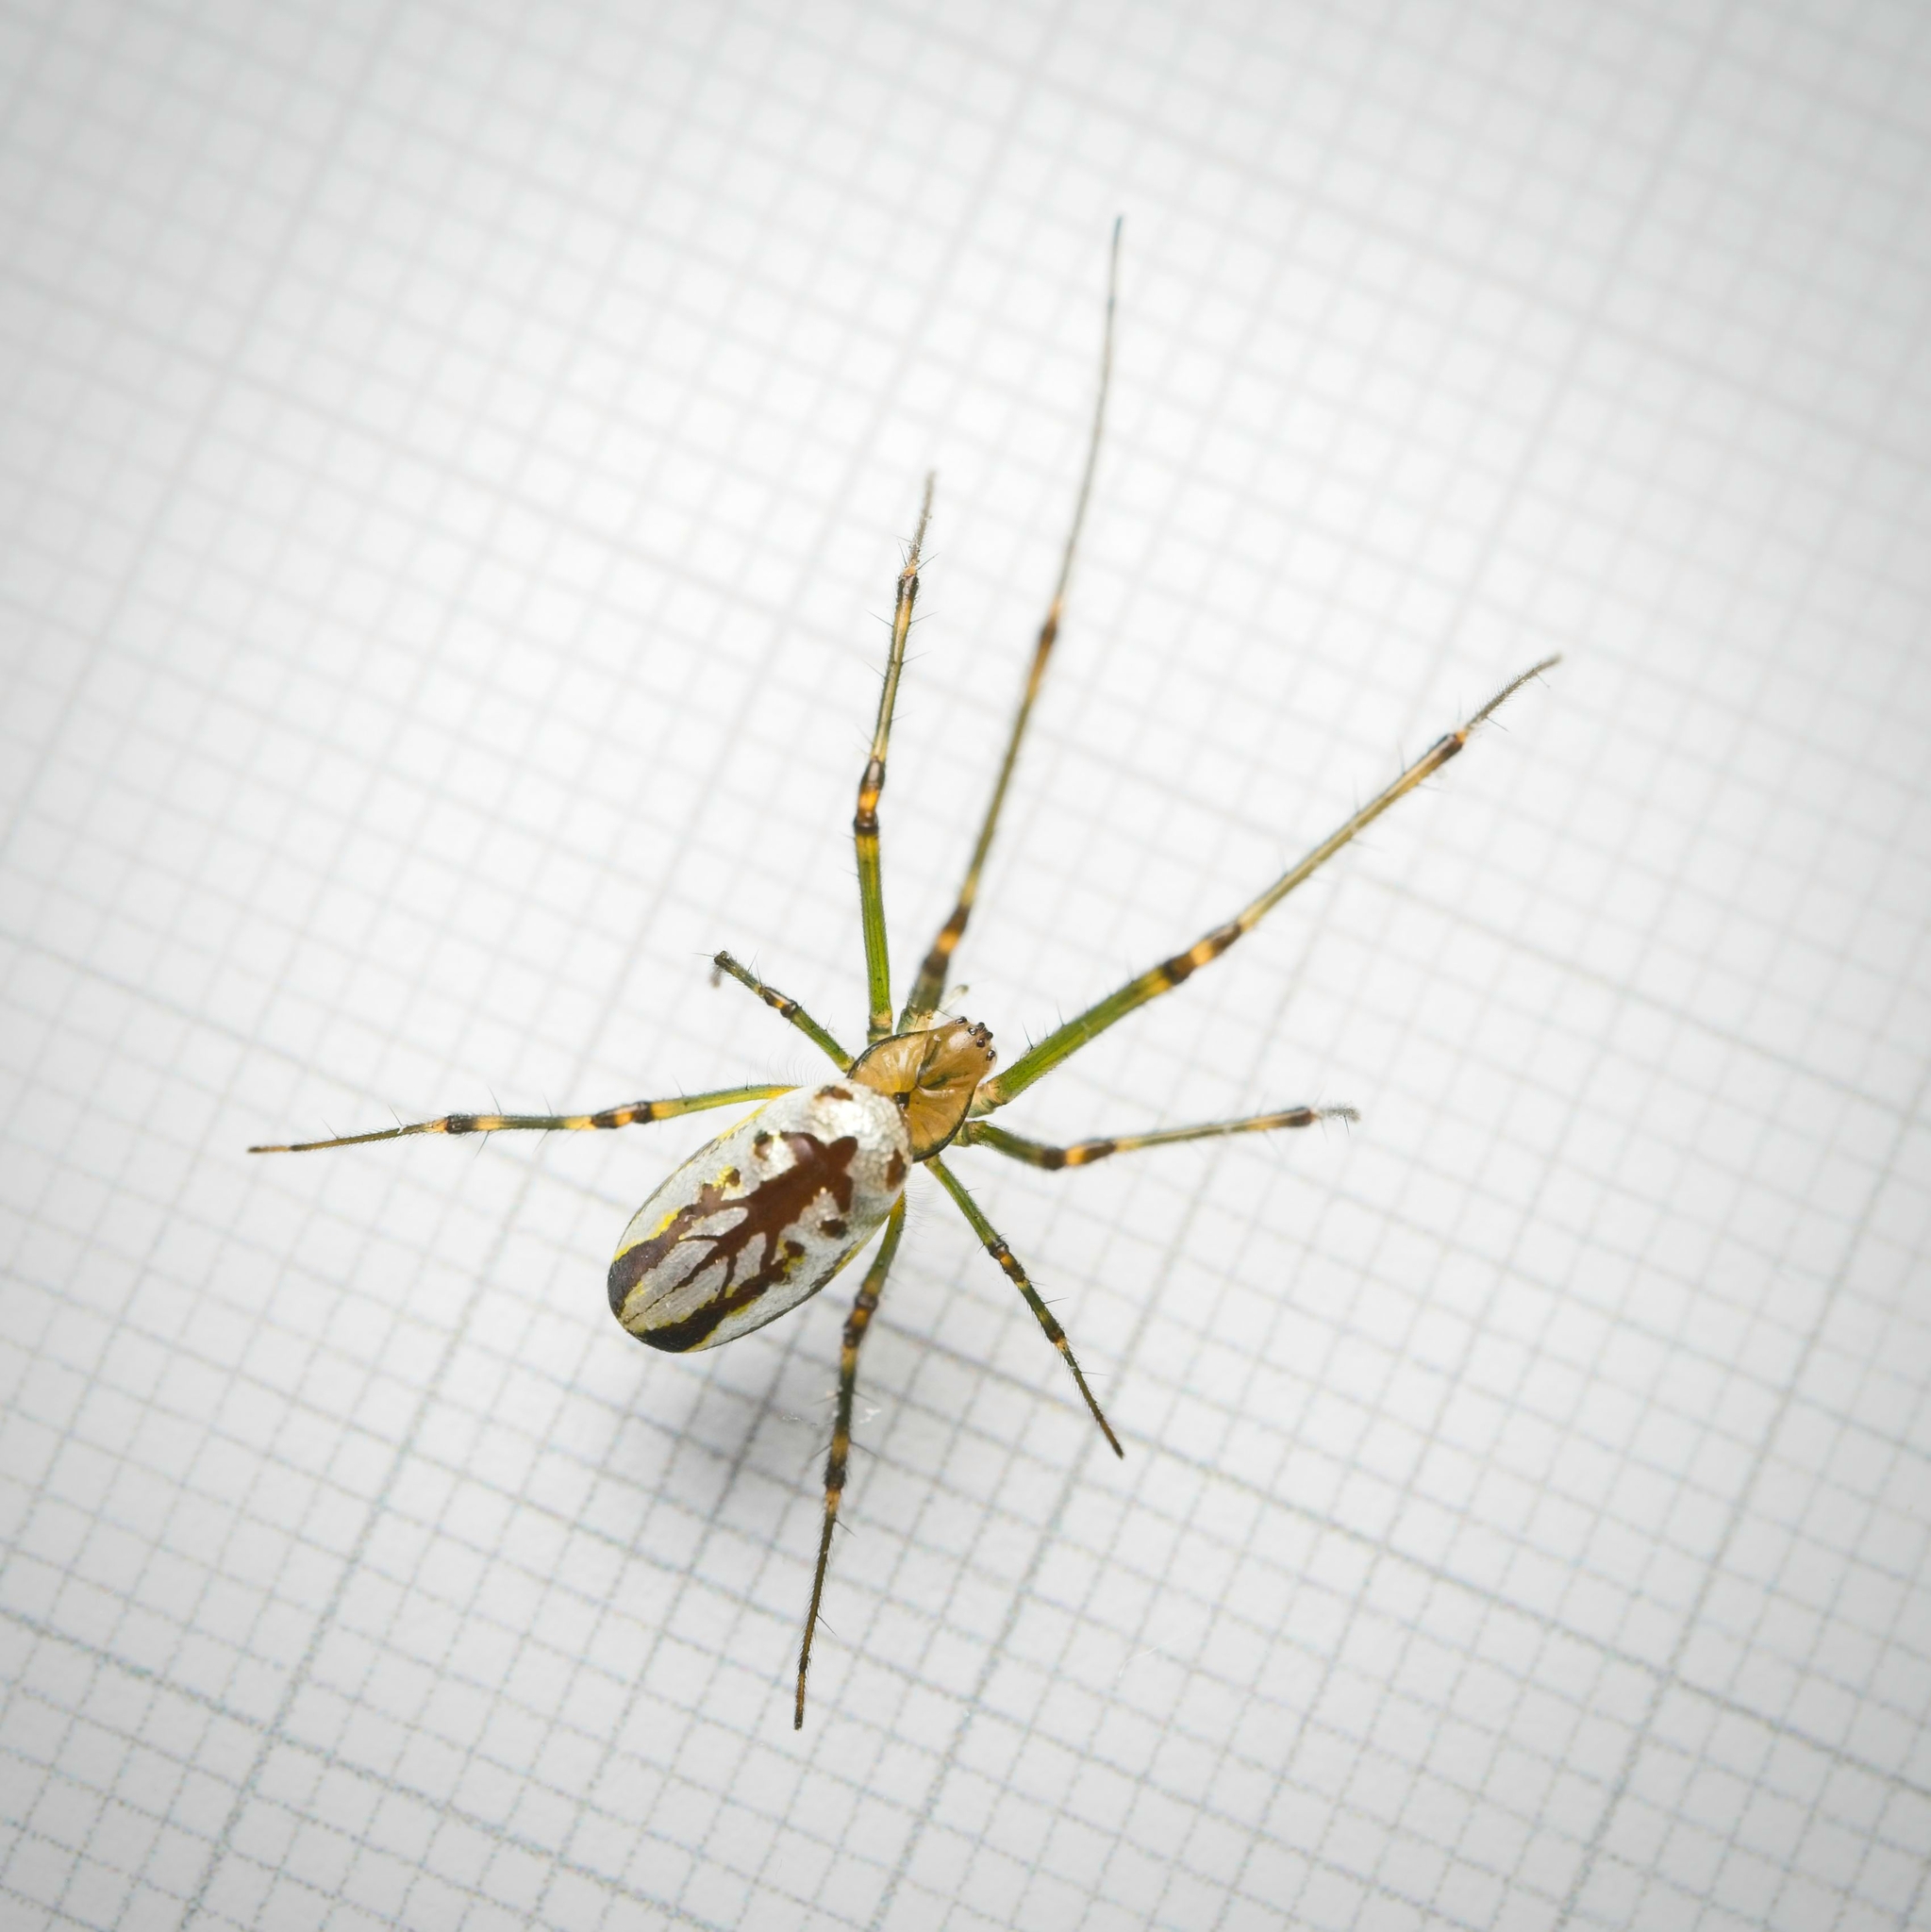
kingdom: Animalia
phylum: Arthropoda
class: Arachnida
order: Araneae
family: Tetragnathidae
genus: Leucauge
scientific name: Leucauge dromedaria
